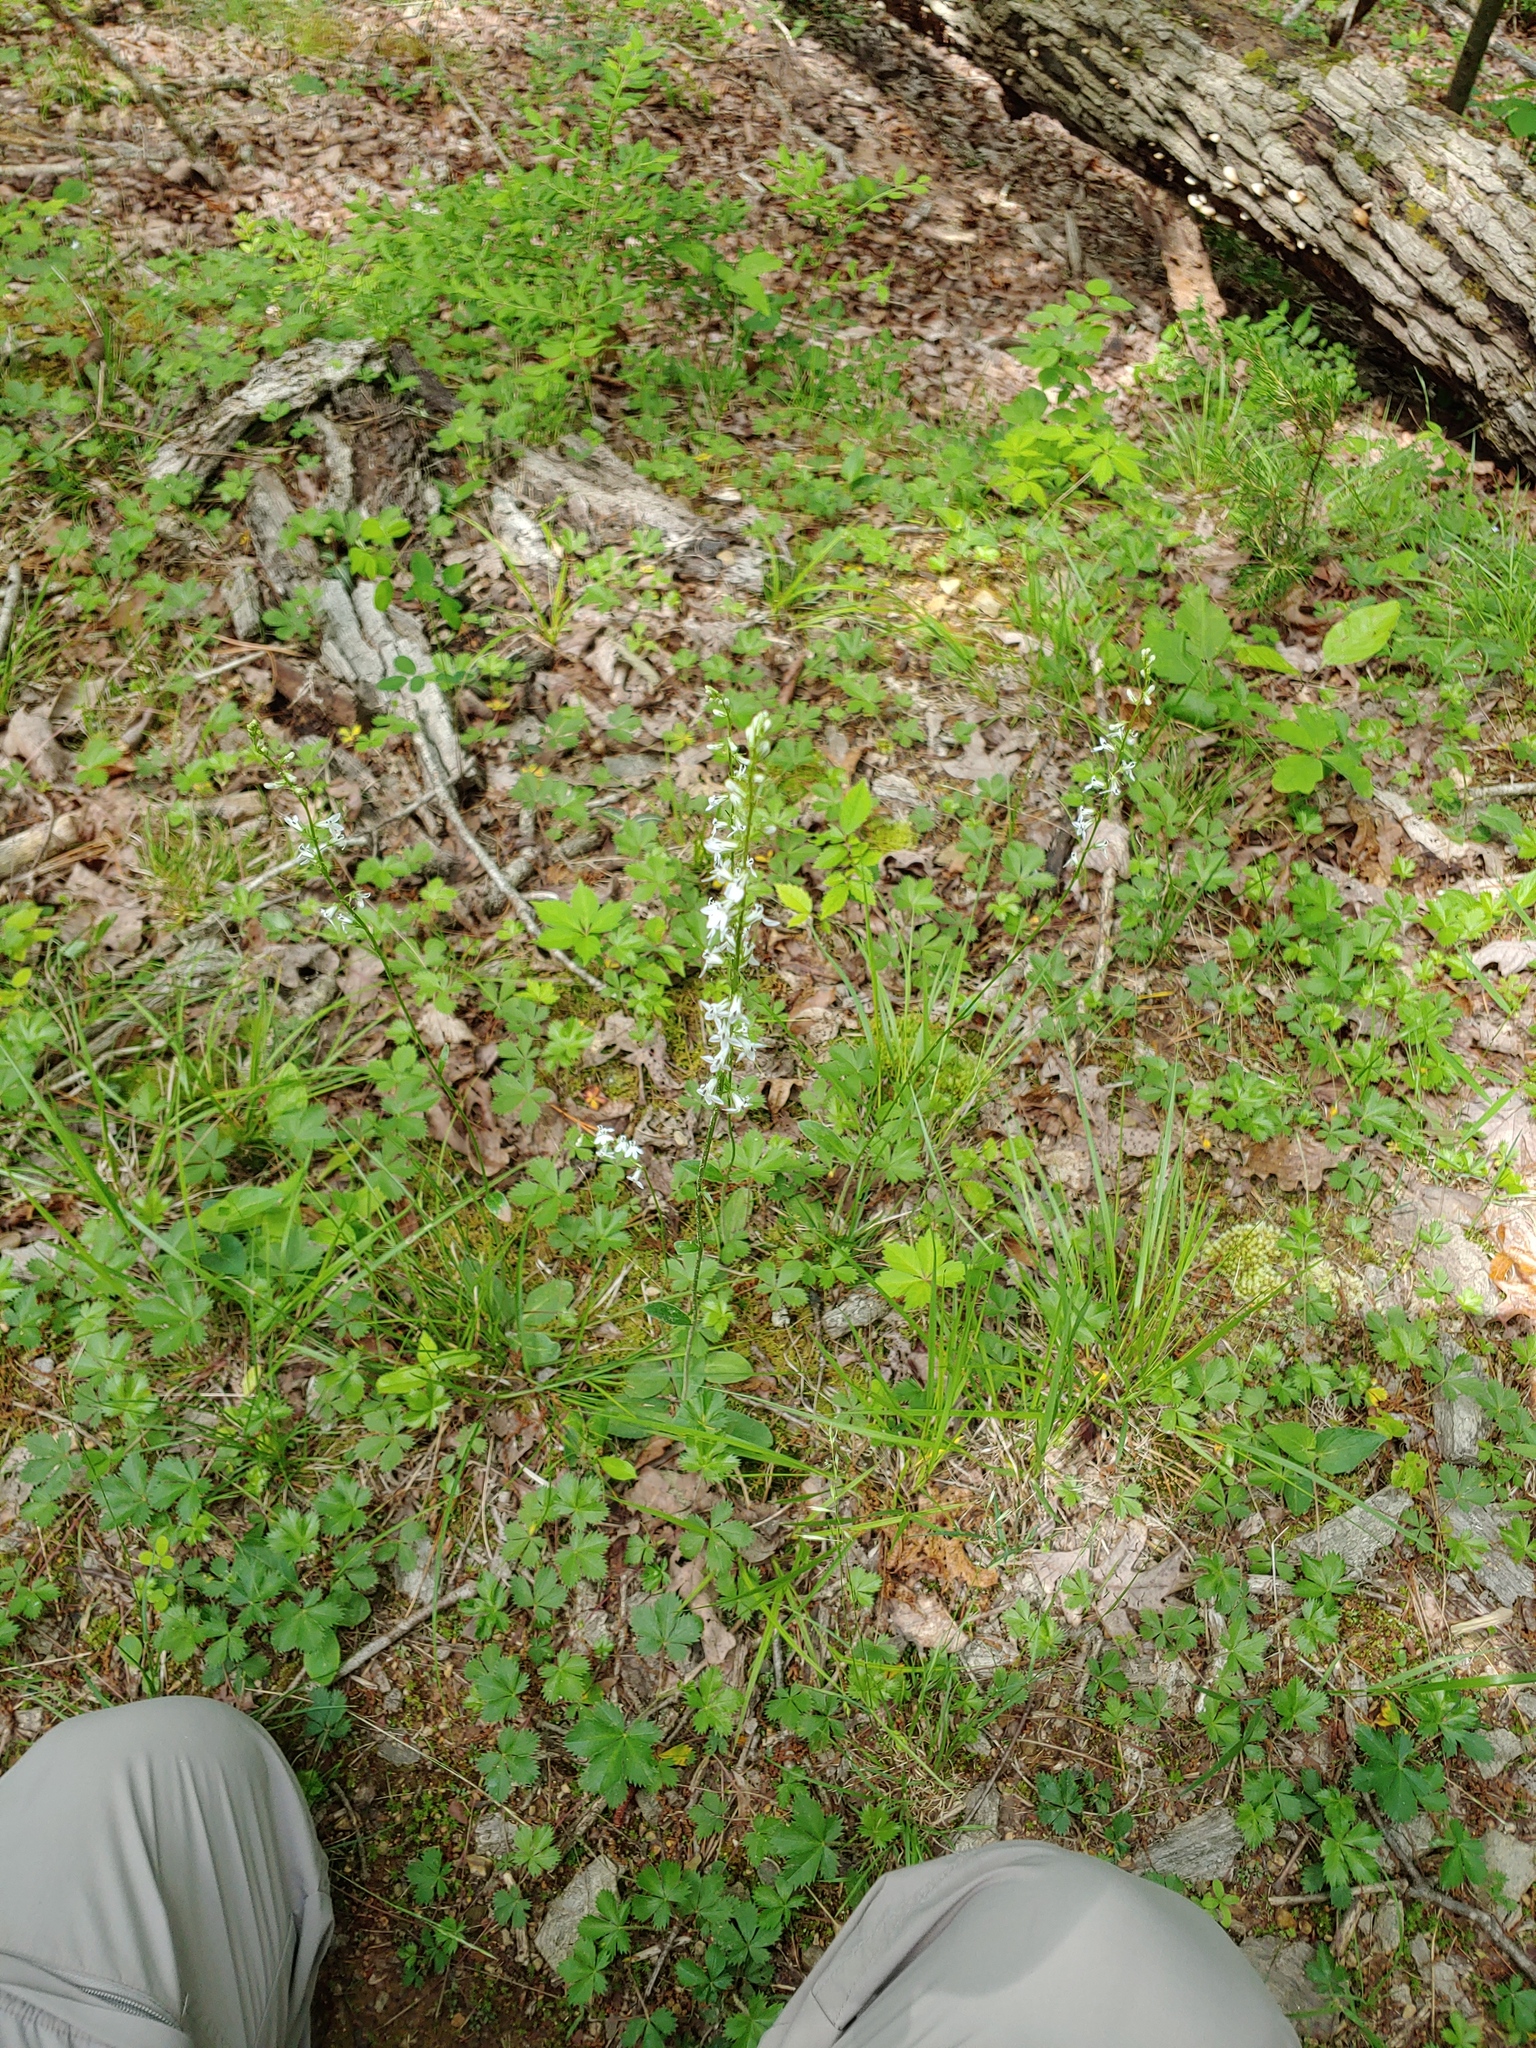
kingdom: Plantae
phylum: Tracheophyta
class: Magnoliopsida
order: Asterales
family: Campanulaceae
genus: Lobelia
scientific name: Lobelia spicata
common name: Pale-spike lobelia
